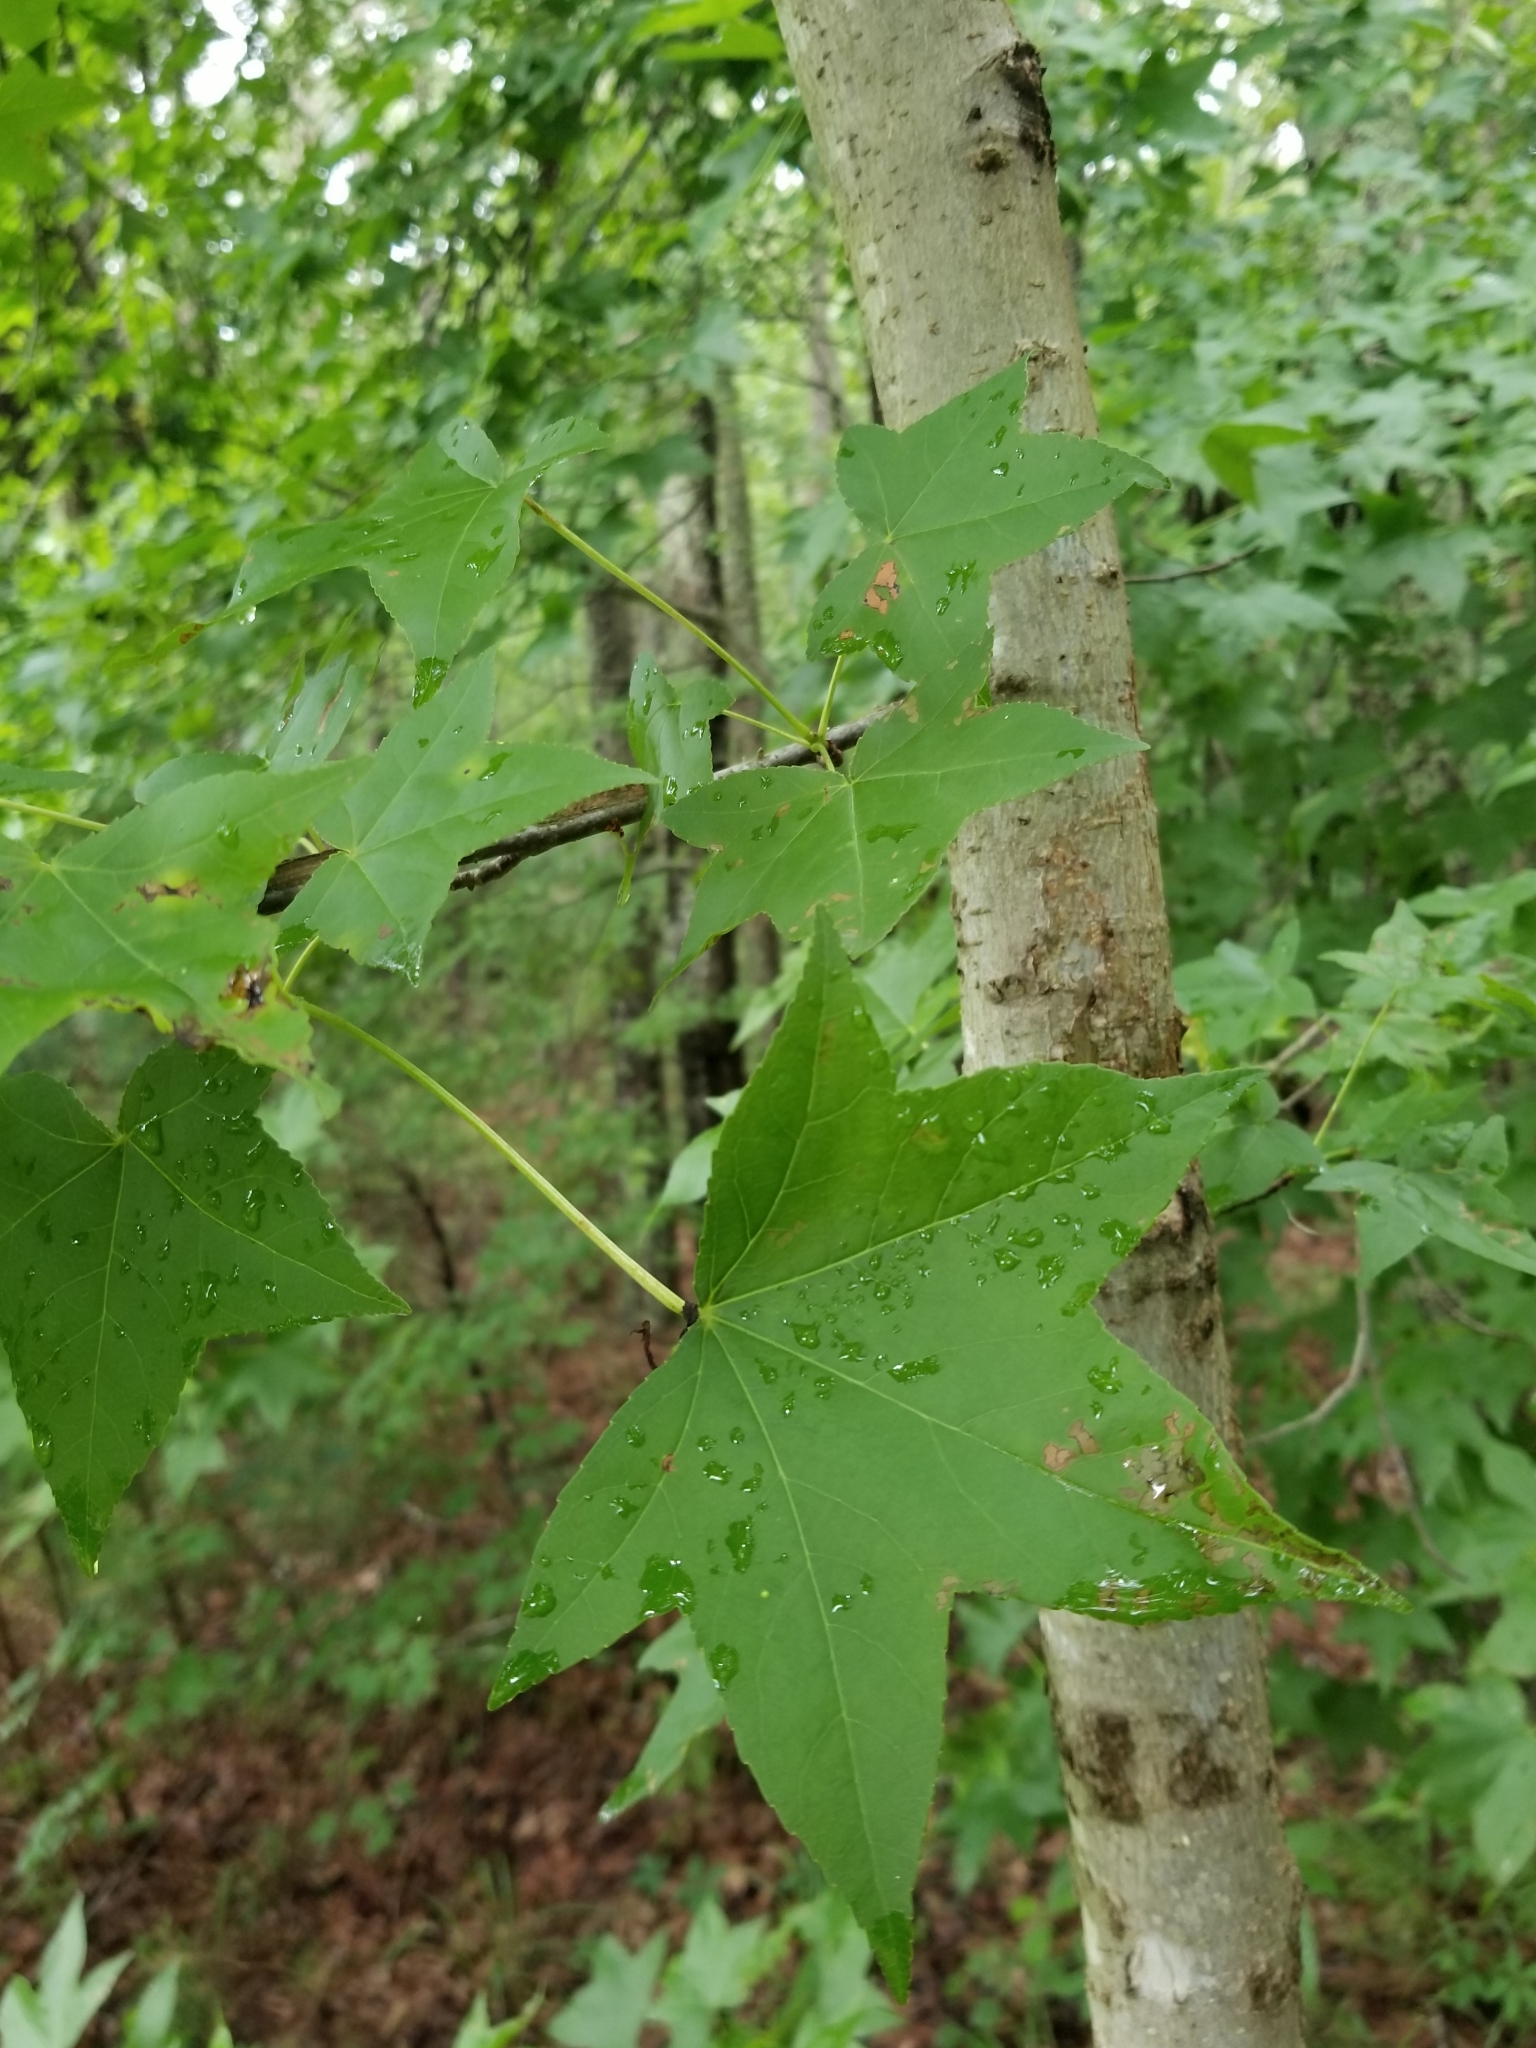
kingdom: Plantae
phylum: Tracheophyta
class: Magnoliopsida
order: Saxifragales
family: Altingiaceae
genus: Liquidambar
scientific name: Liquidambar styraciflua
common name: Sweet gum
